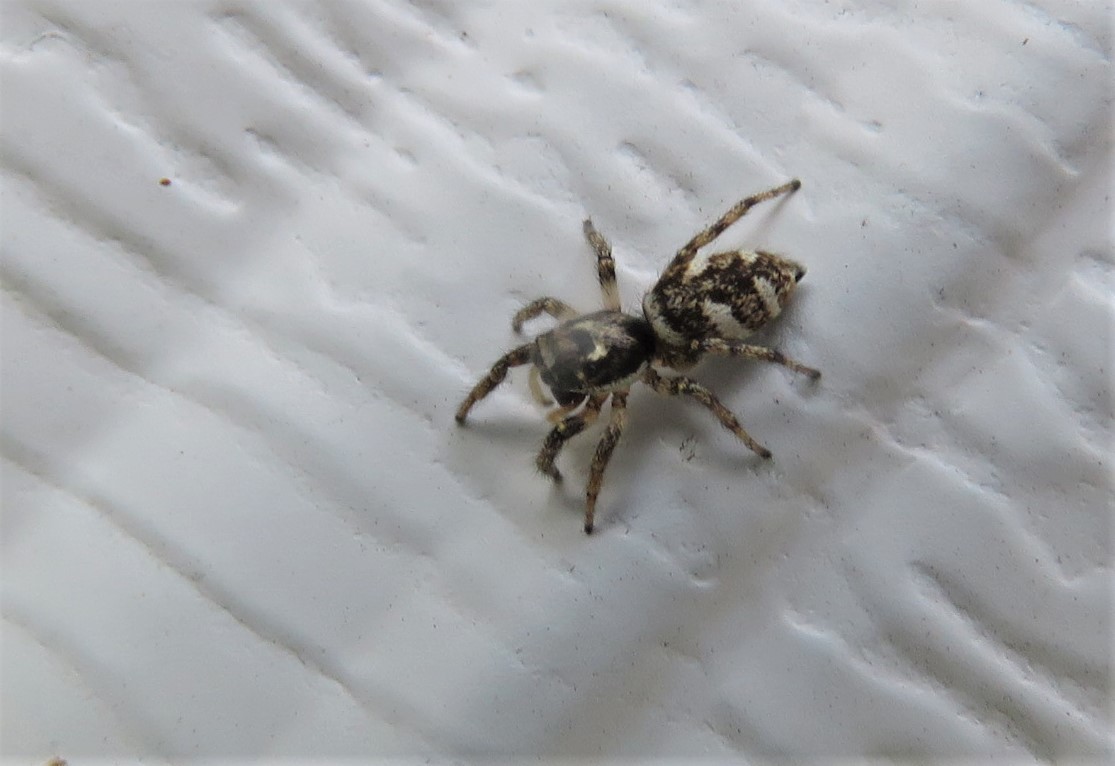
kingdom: Animalia
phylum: Arthropoda
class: Arachnida
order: Araneae
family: Salticidae
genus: Salticus
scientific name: Salticus scenicus
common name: Zebra jumper
